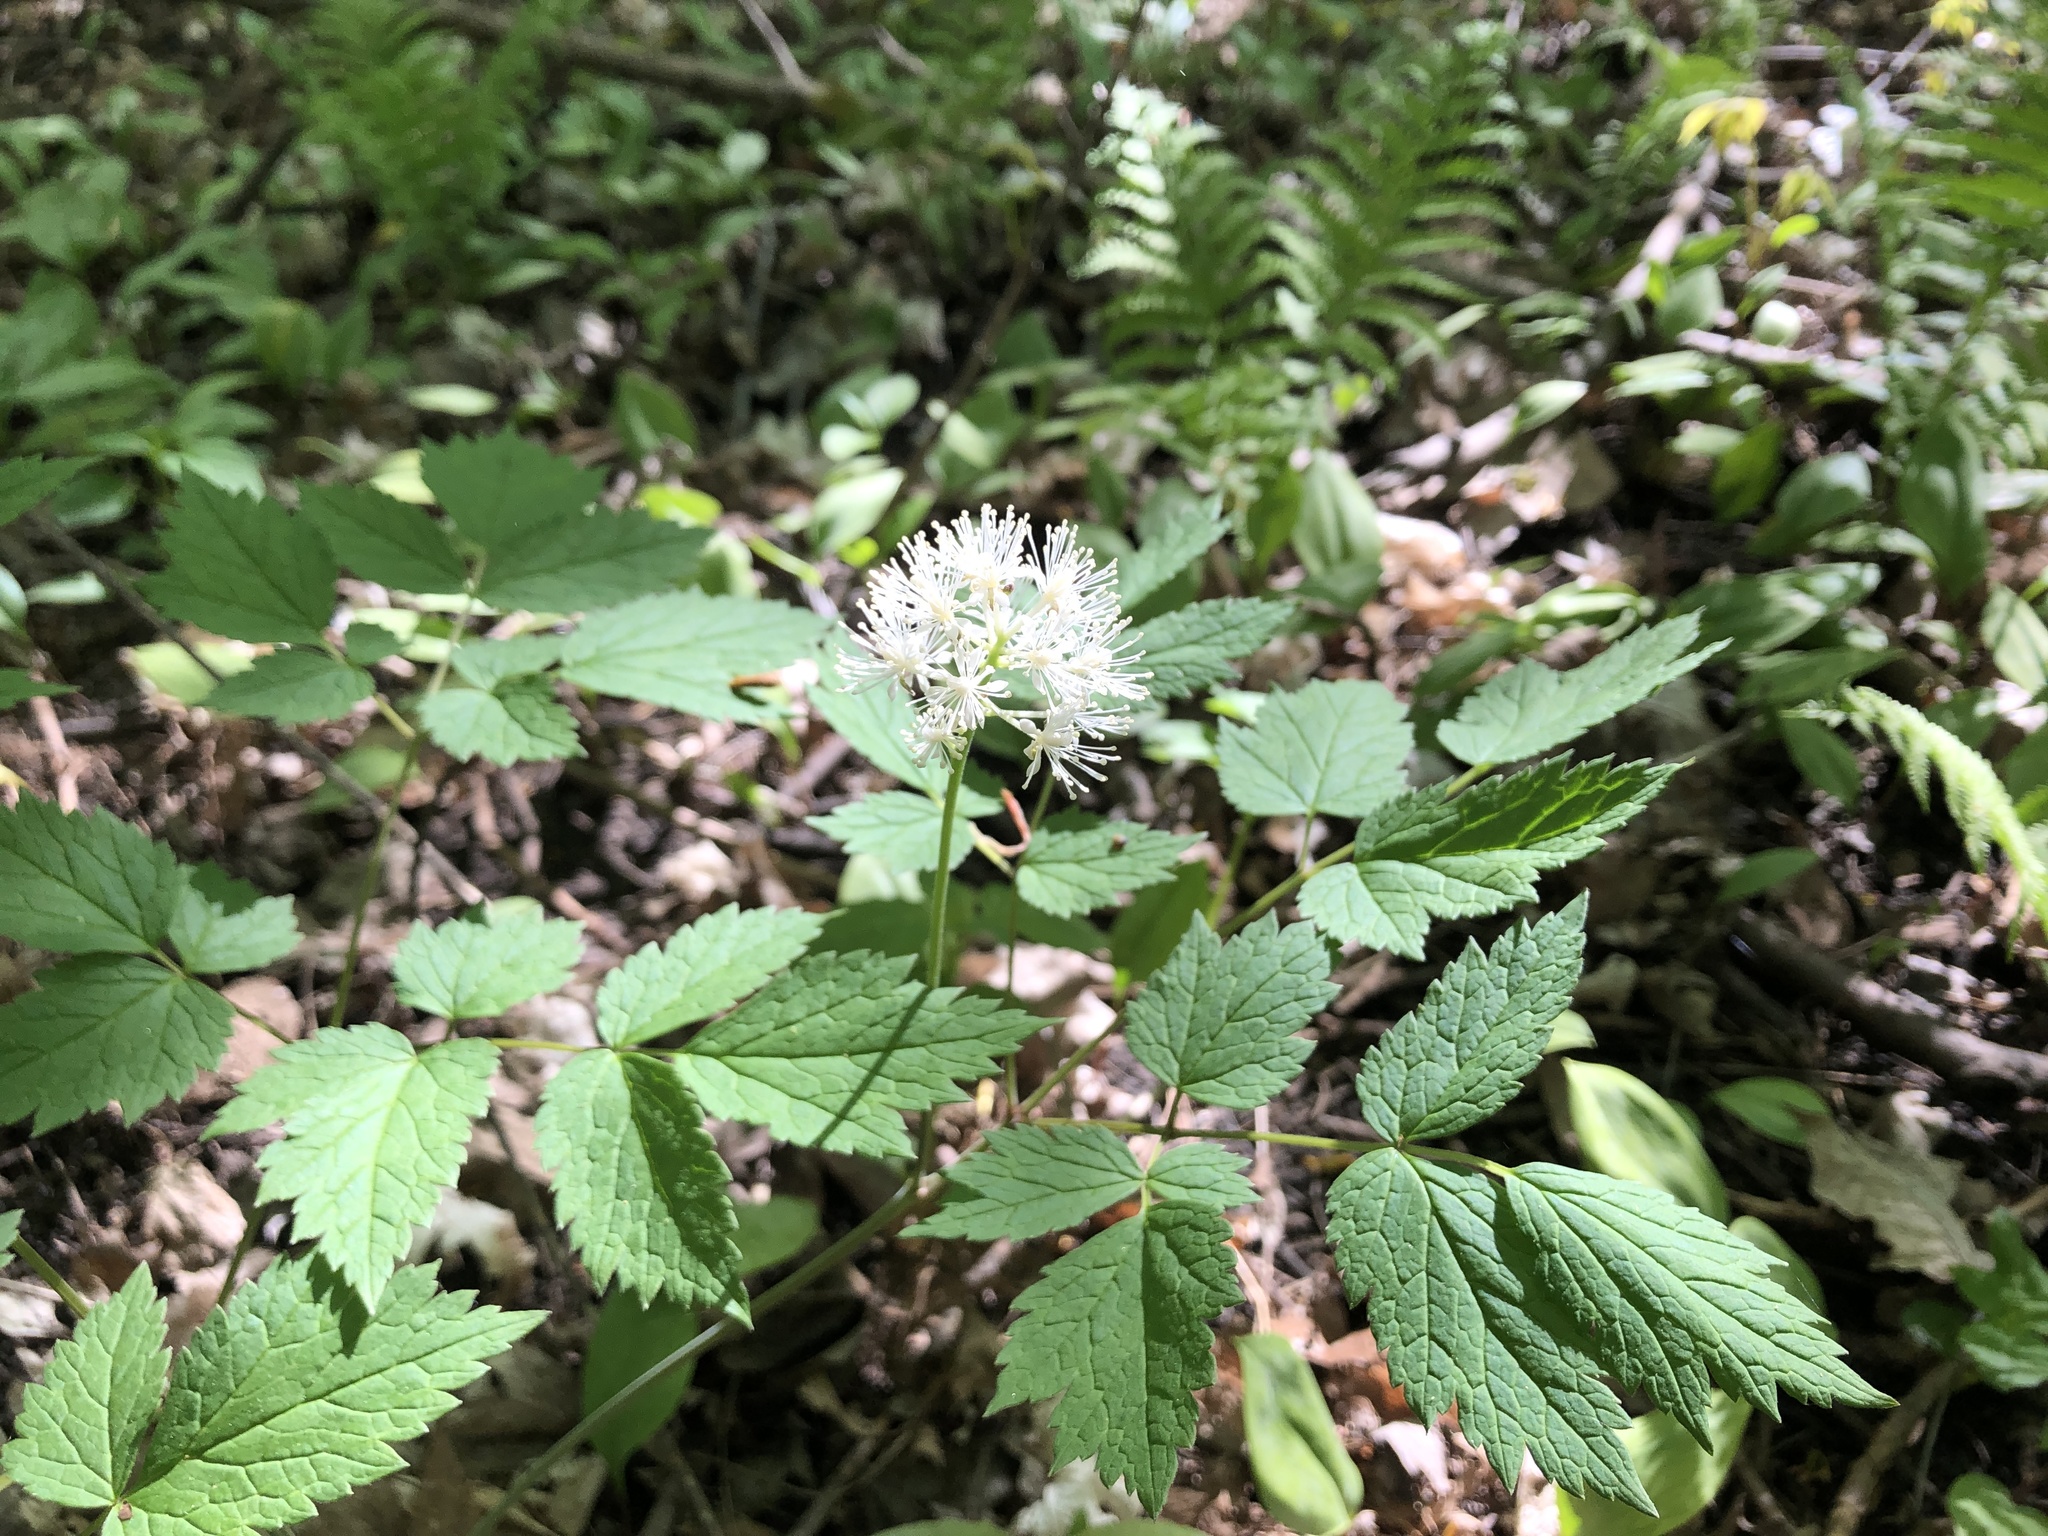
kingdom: Plantae
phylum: Tracheophyta
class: Magnoliopsida
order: Ranunculales
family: Ranunculaceae
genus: Actaea
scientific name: Actaea rubra
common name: Red baneberry
